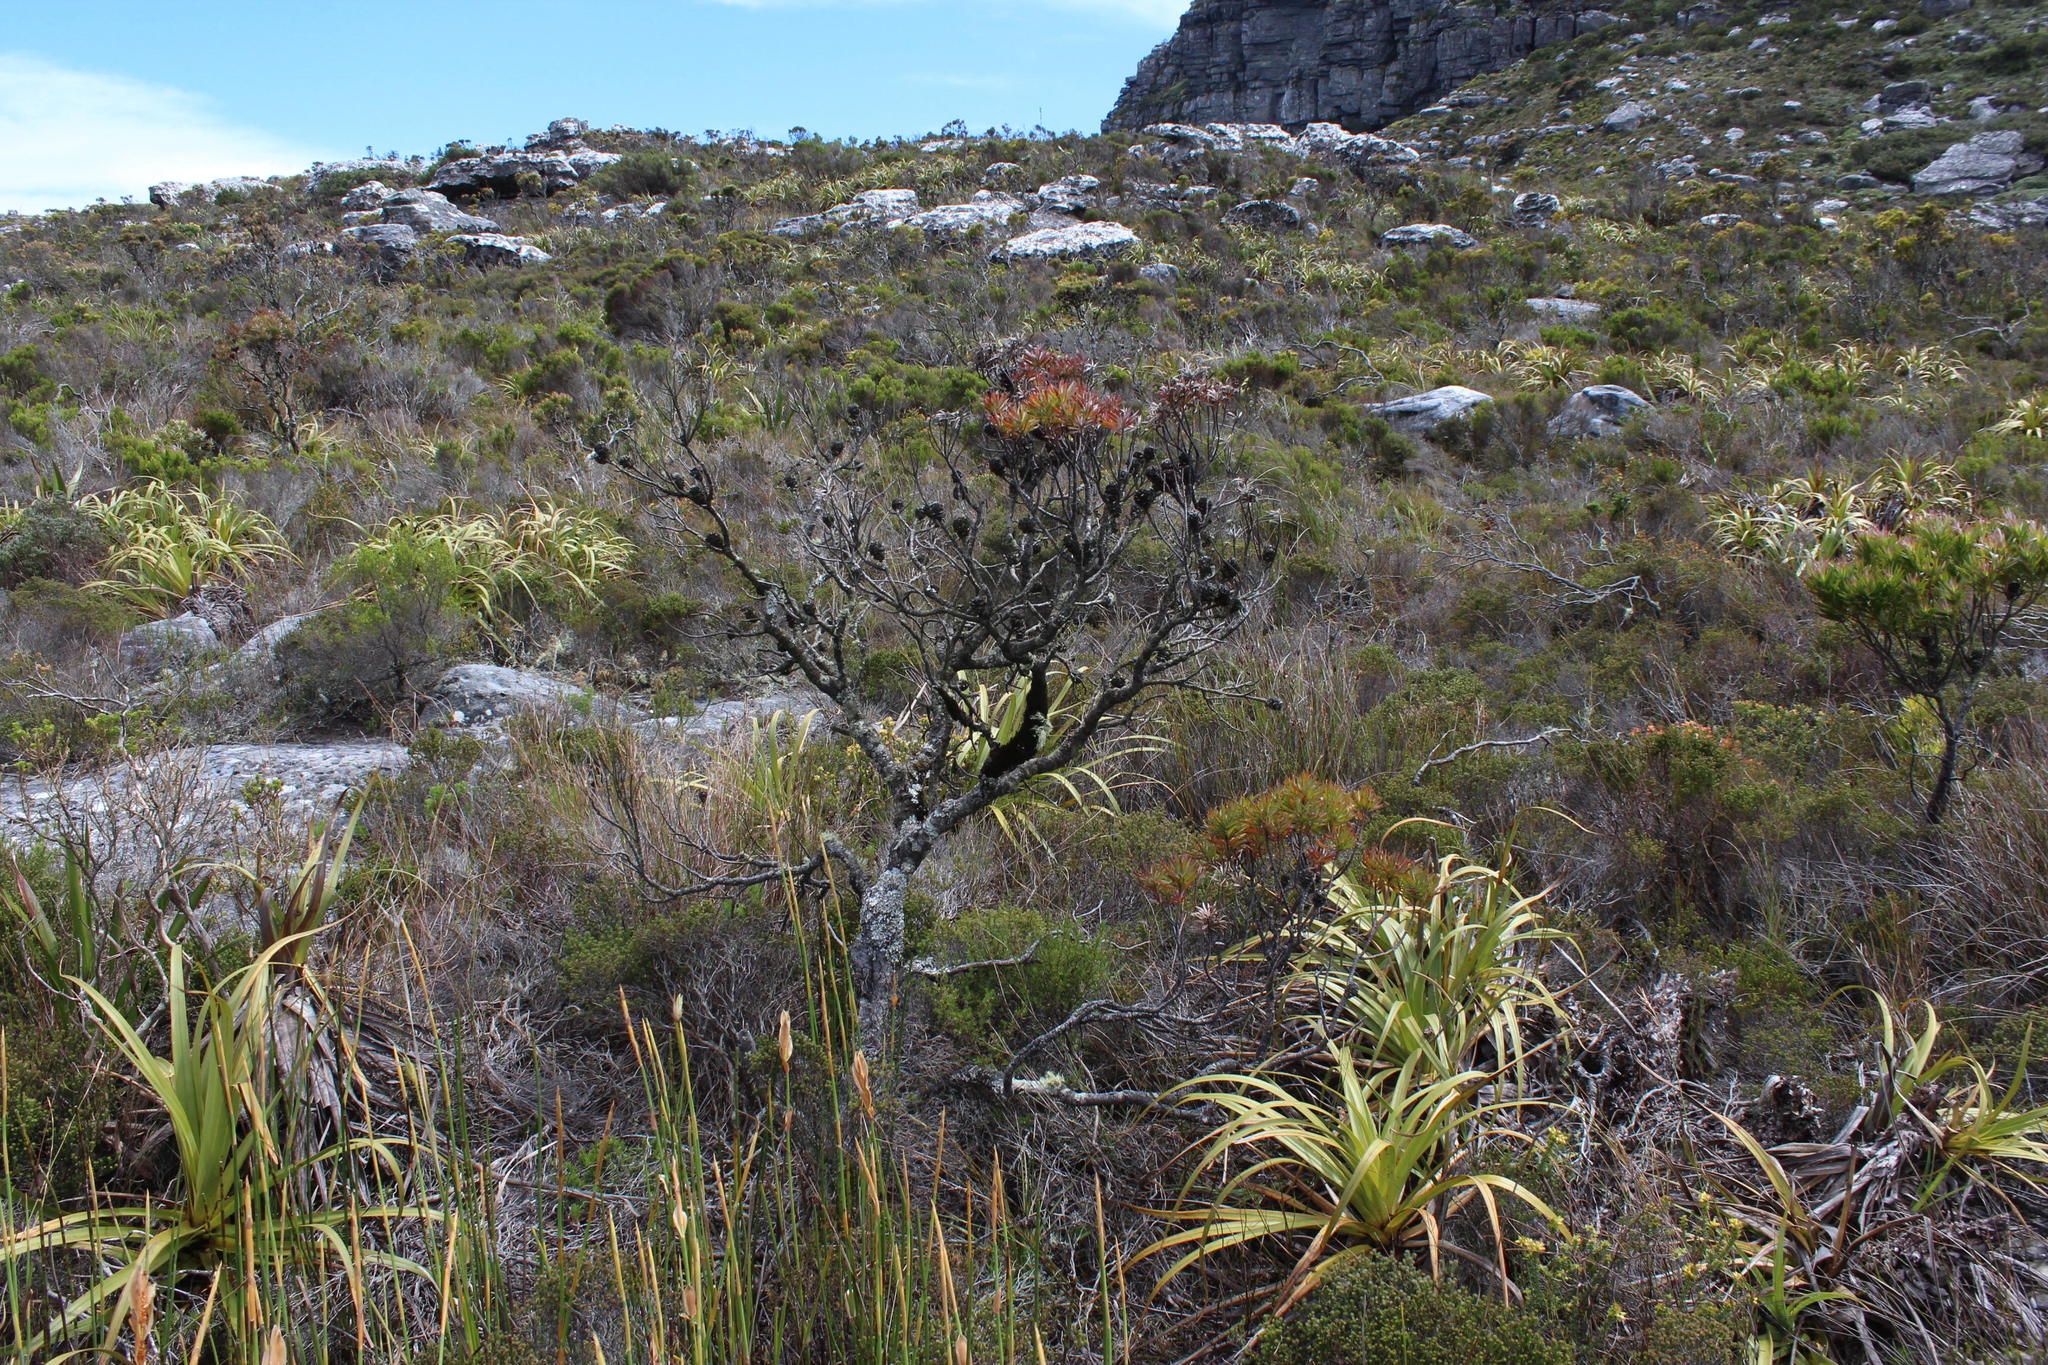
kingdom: Plantae
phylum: Tracheophyta
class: Magnoliopsida
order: Proteales
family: Proteaceae
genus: Leucadendron
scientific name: Leucadendron xanthoconus
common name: Sickle-leaf conebush
